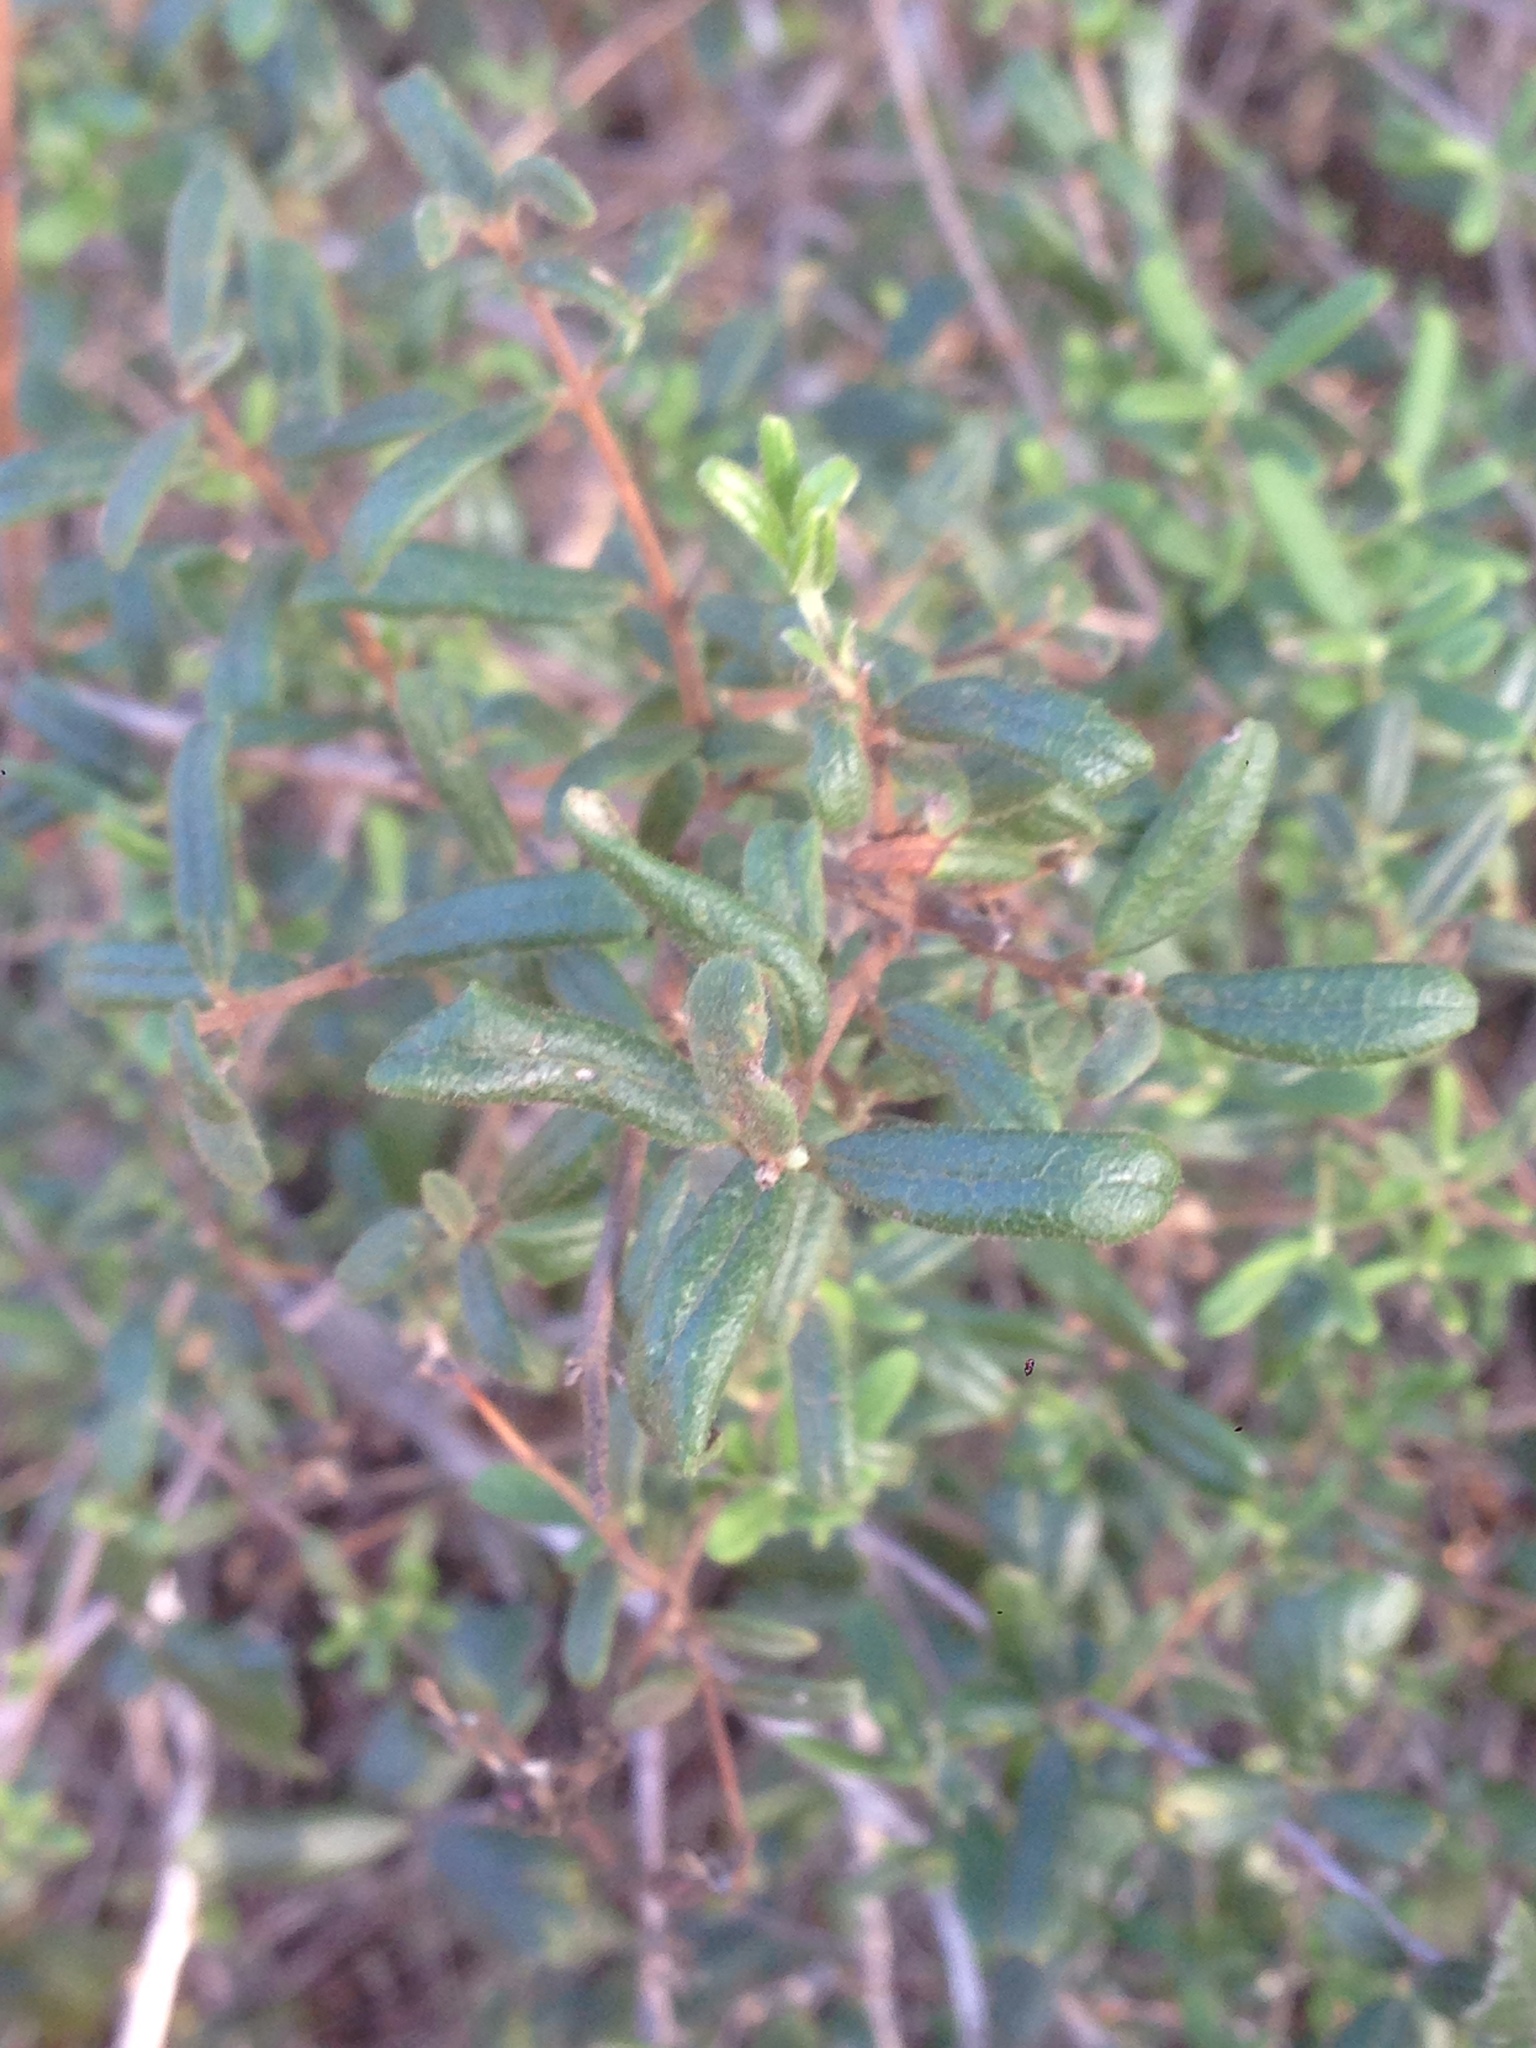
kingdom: Plantae
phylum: Tracheophyta
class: Magnoliopsida
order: Dipsacales
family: Caprifoliaceae
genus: Lonicera
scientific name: Lonicera subspicata
